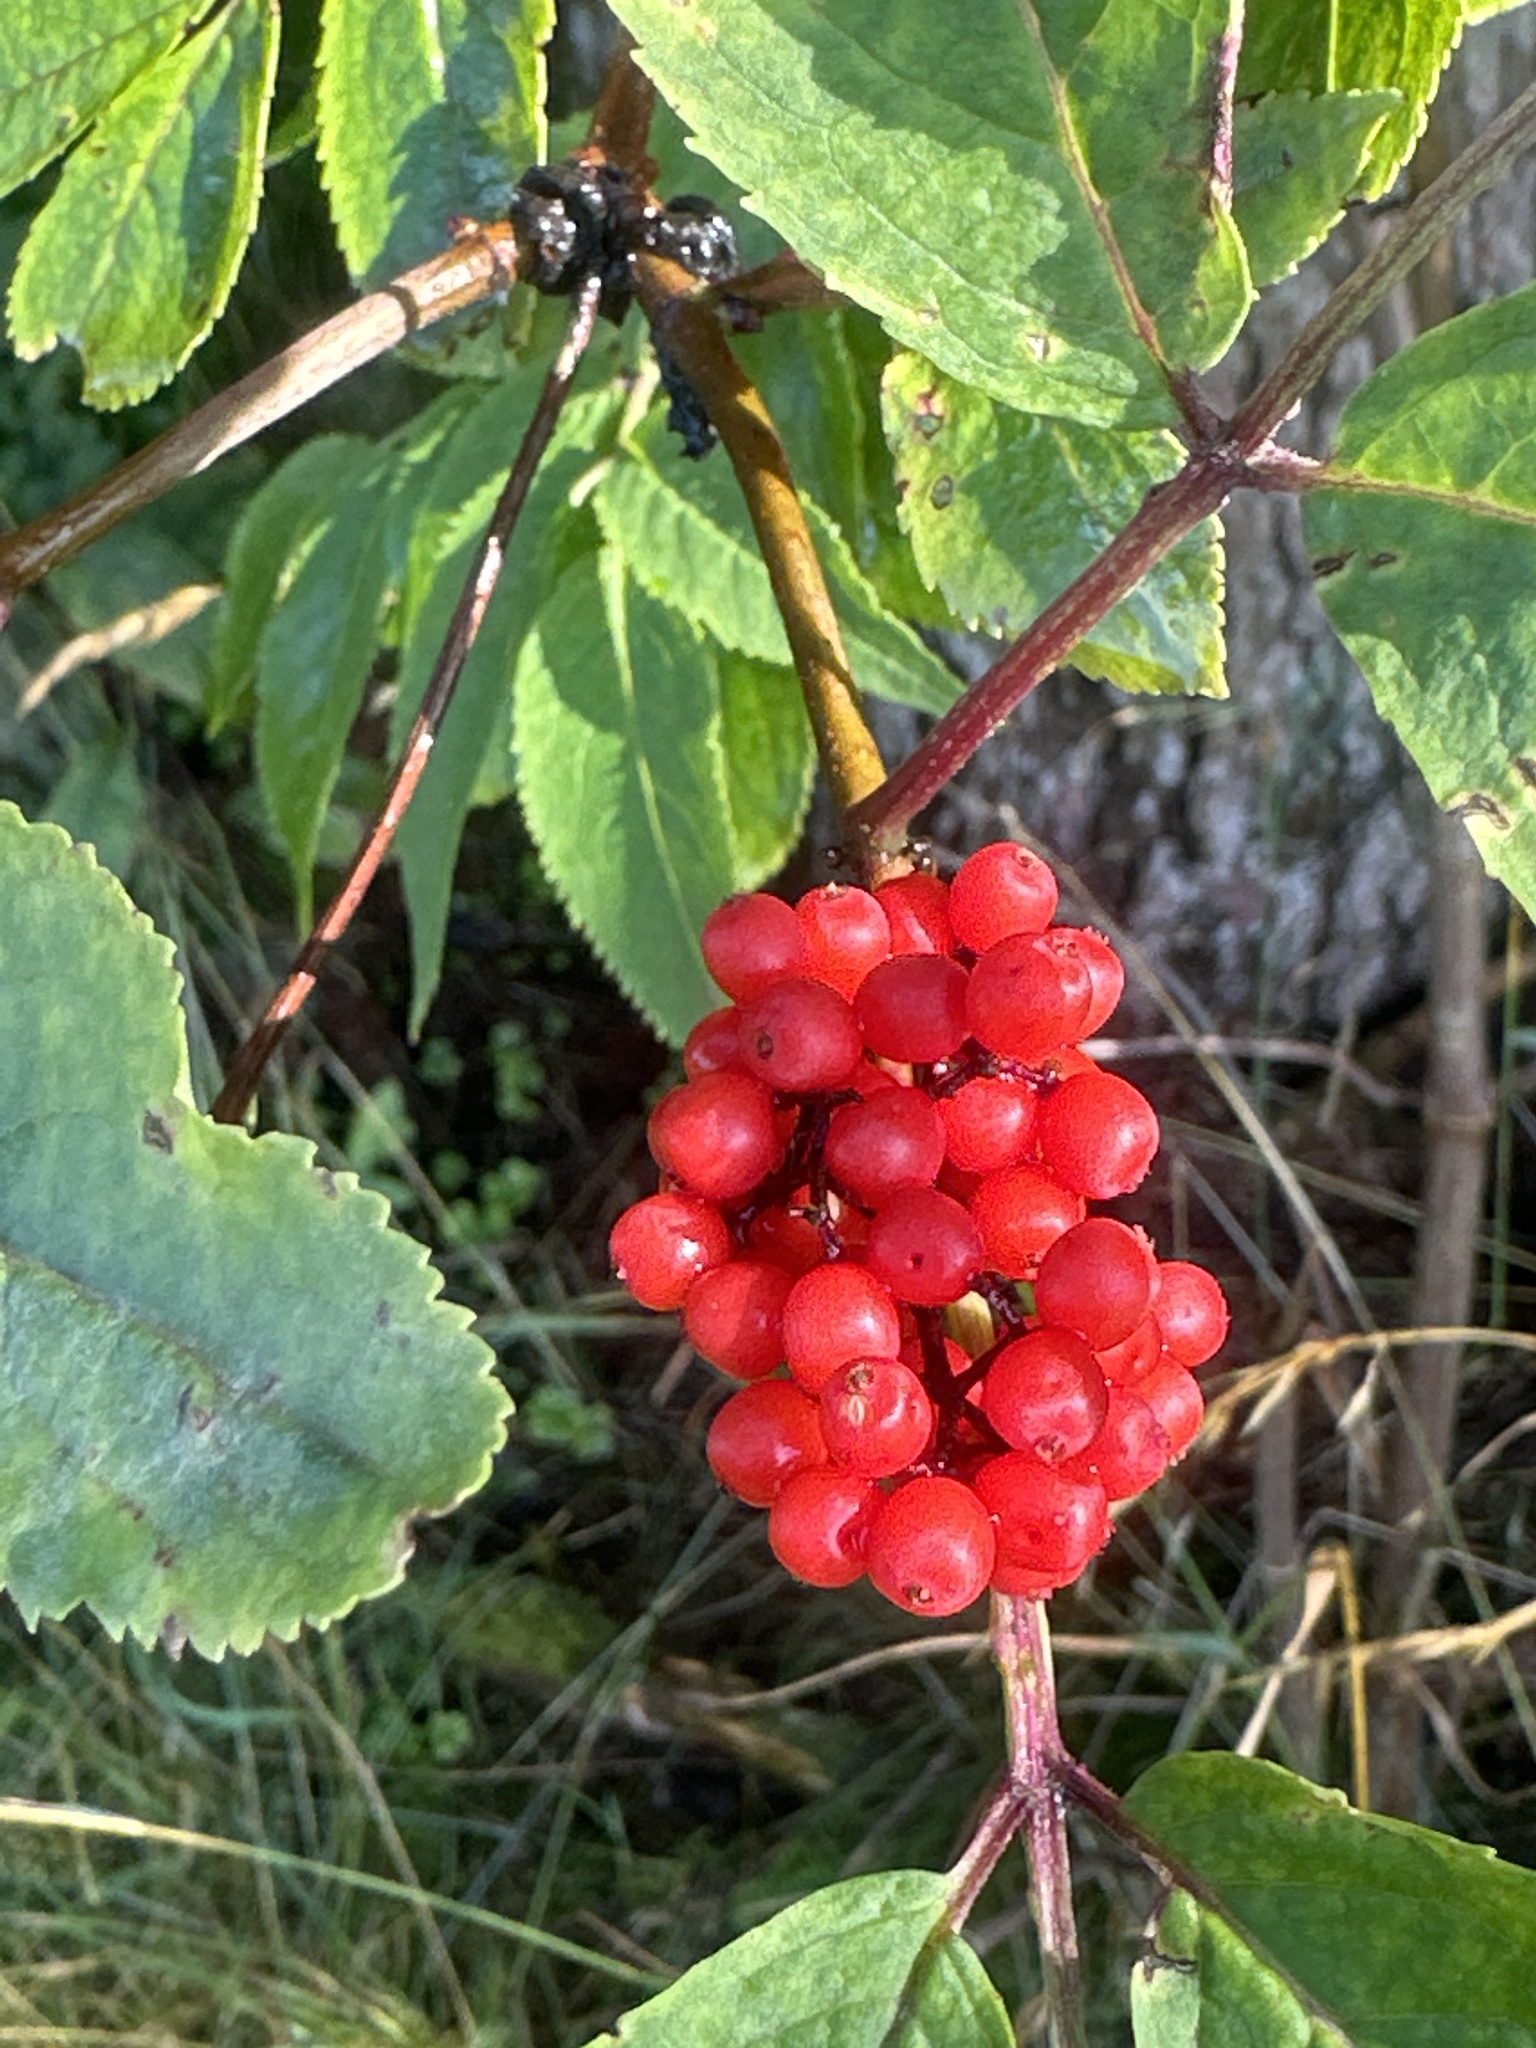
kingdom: Plantae
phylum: Tracheophyta
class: Magnoliopsida
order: Dipsacales
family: Viburnaceae
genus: Sambucus
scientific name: Sambucus racemosa
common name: Red-berried elder
